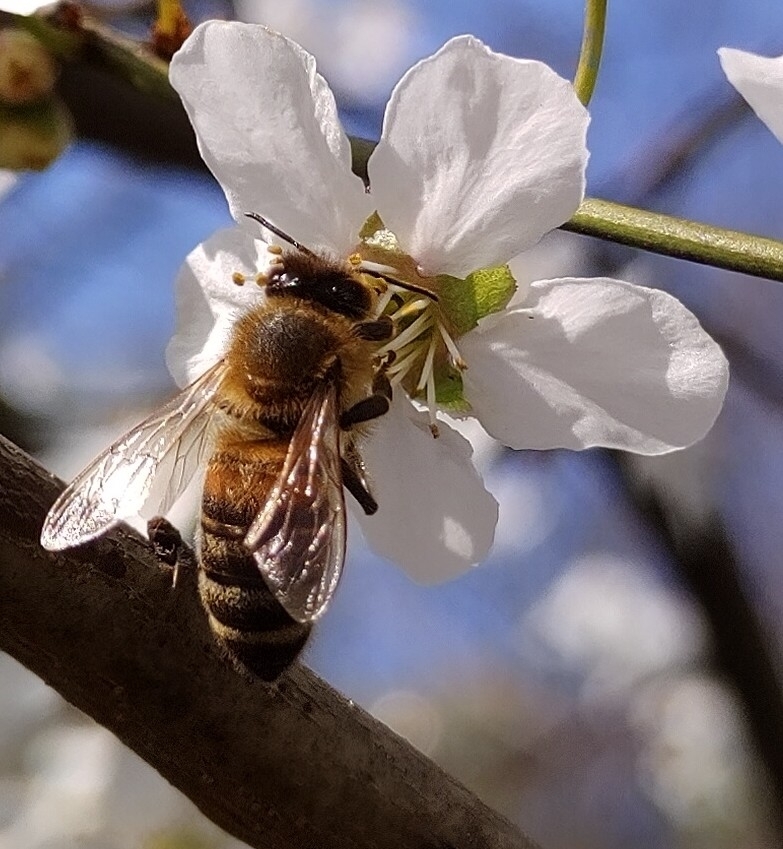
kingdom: Animalia
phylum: Arthropoda
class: Insecta
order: Hymenoptera
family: Apidae
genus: Apis
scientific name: Apis mellifera
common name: Honey bee
